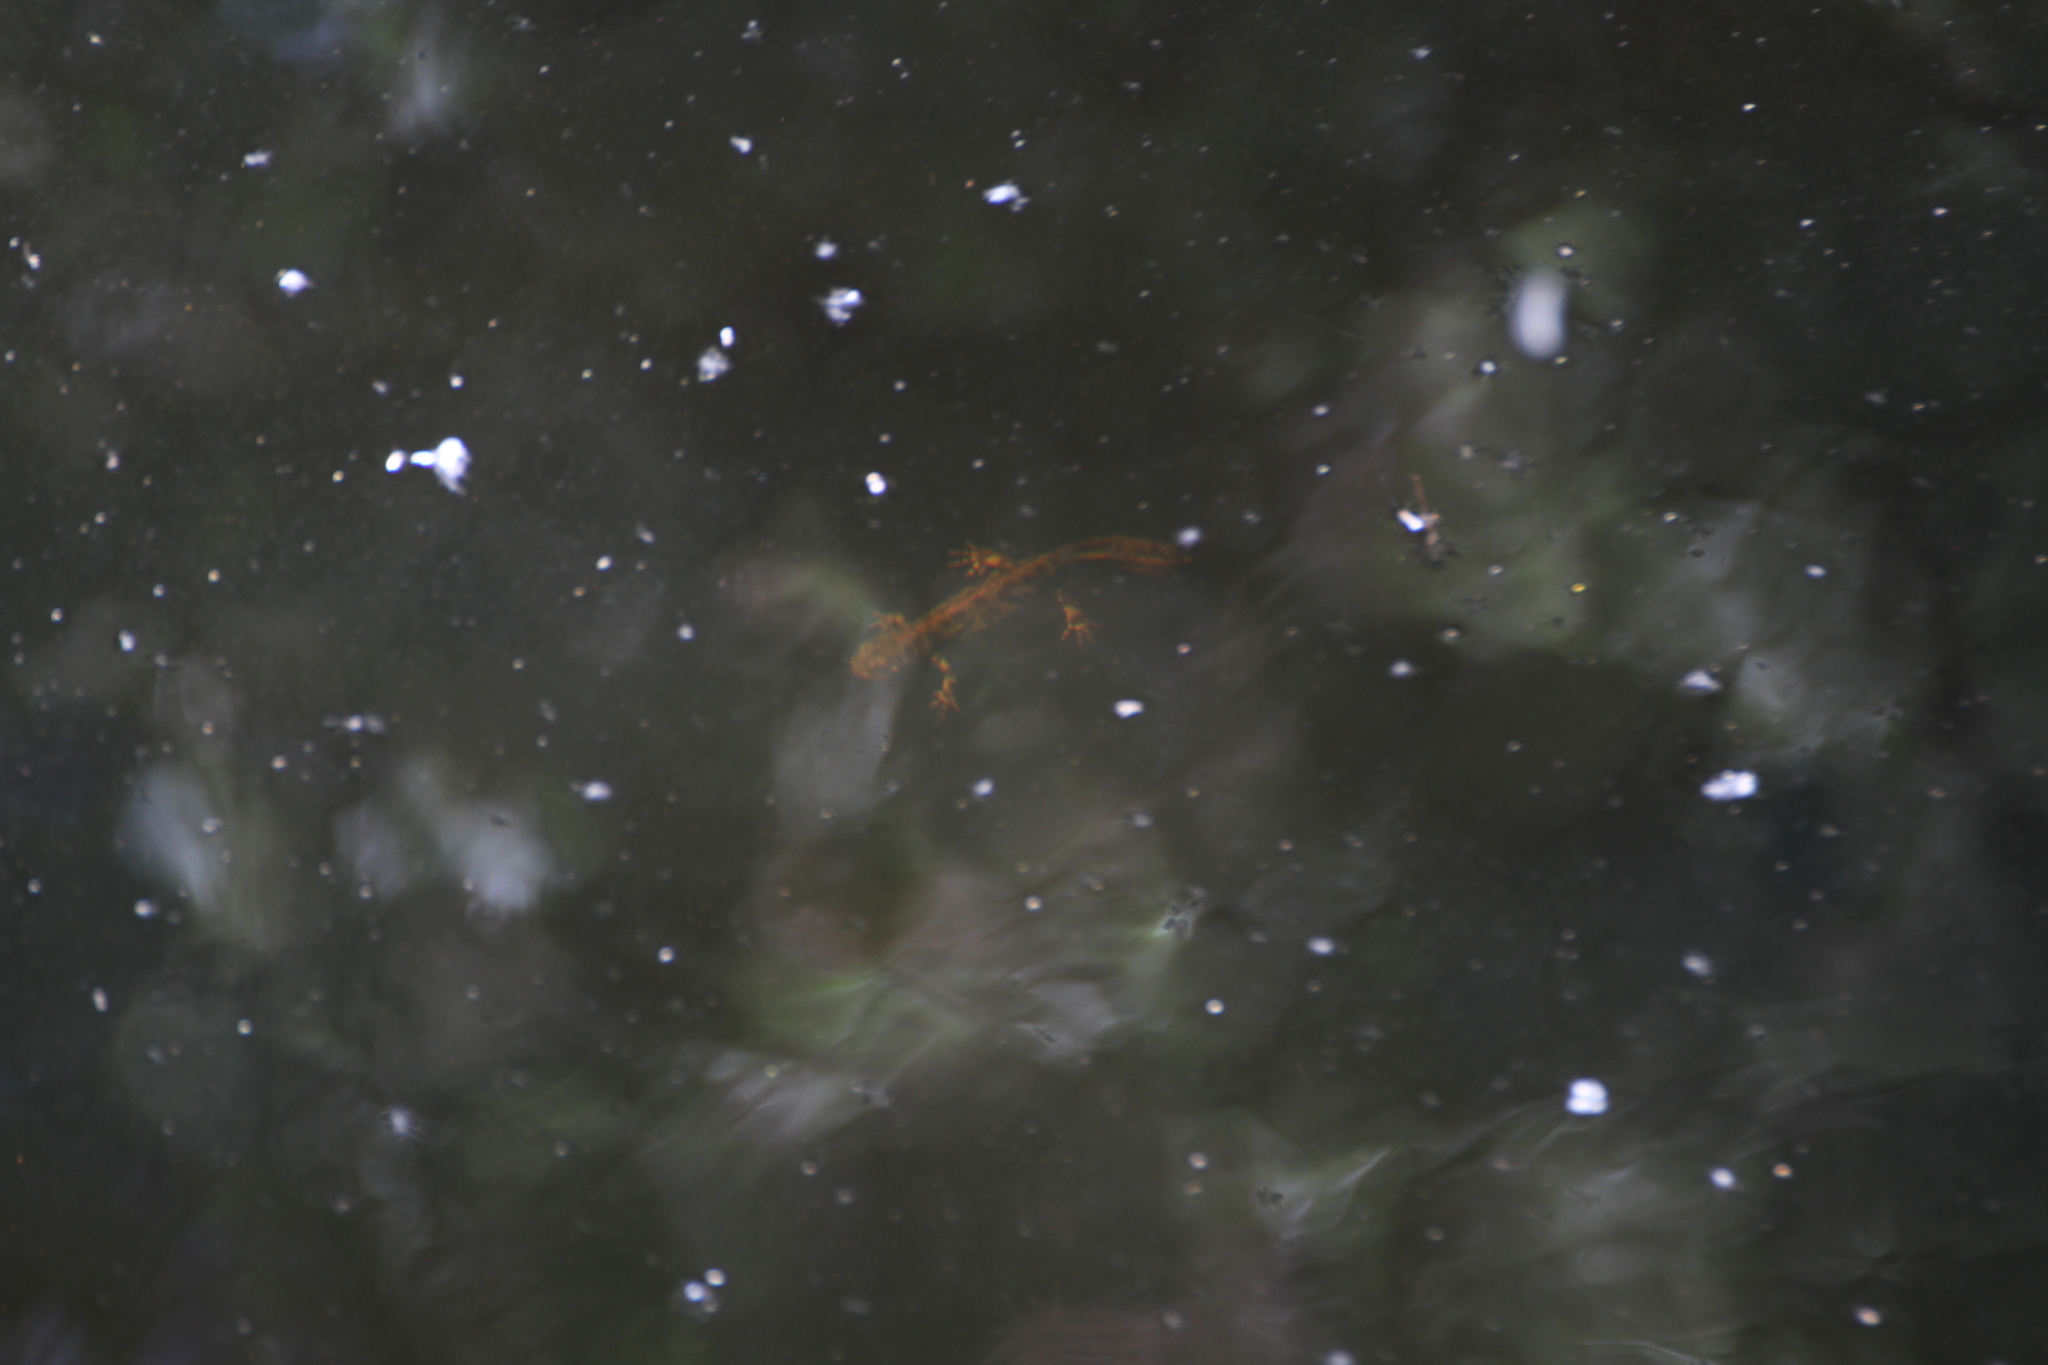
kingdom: Animalia
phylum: Chordata
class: Amphibia
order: Caudata
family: Salamandridae
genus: Triturus
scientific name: Triturus marmoratus
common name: Marbled newt
